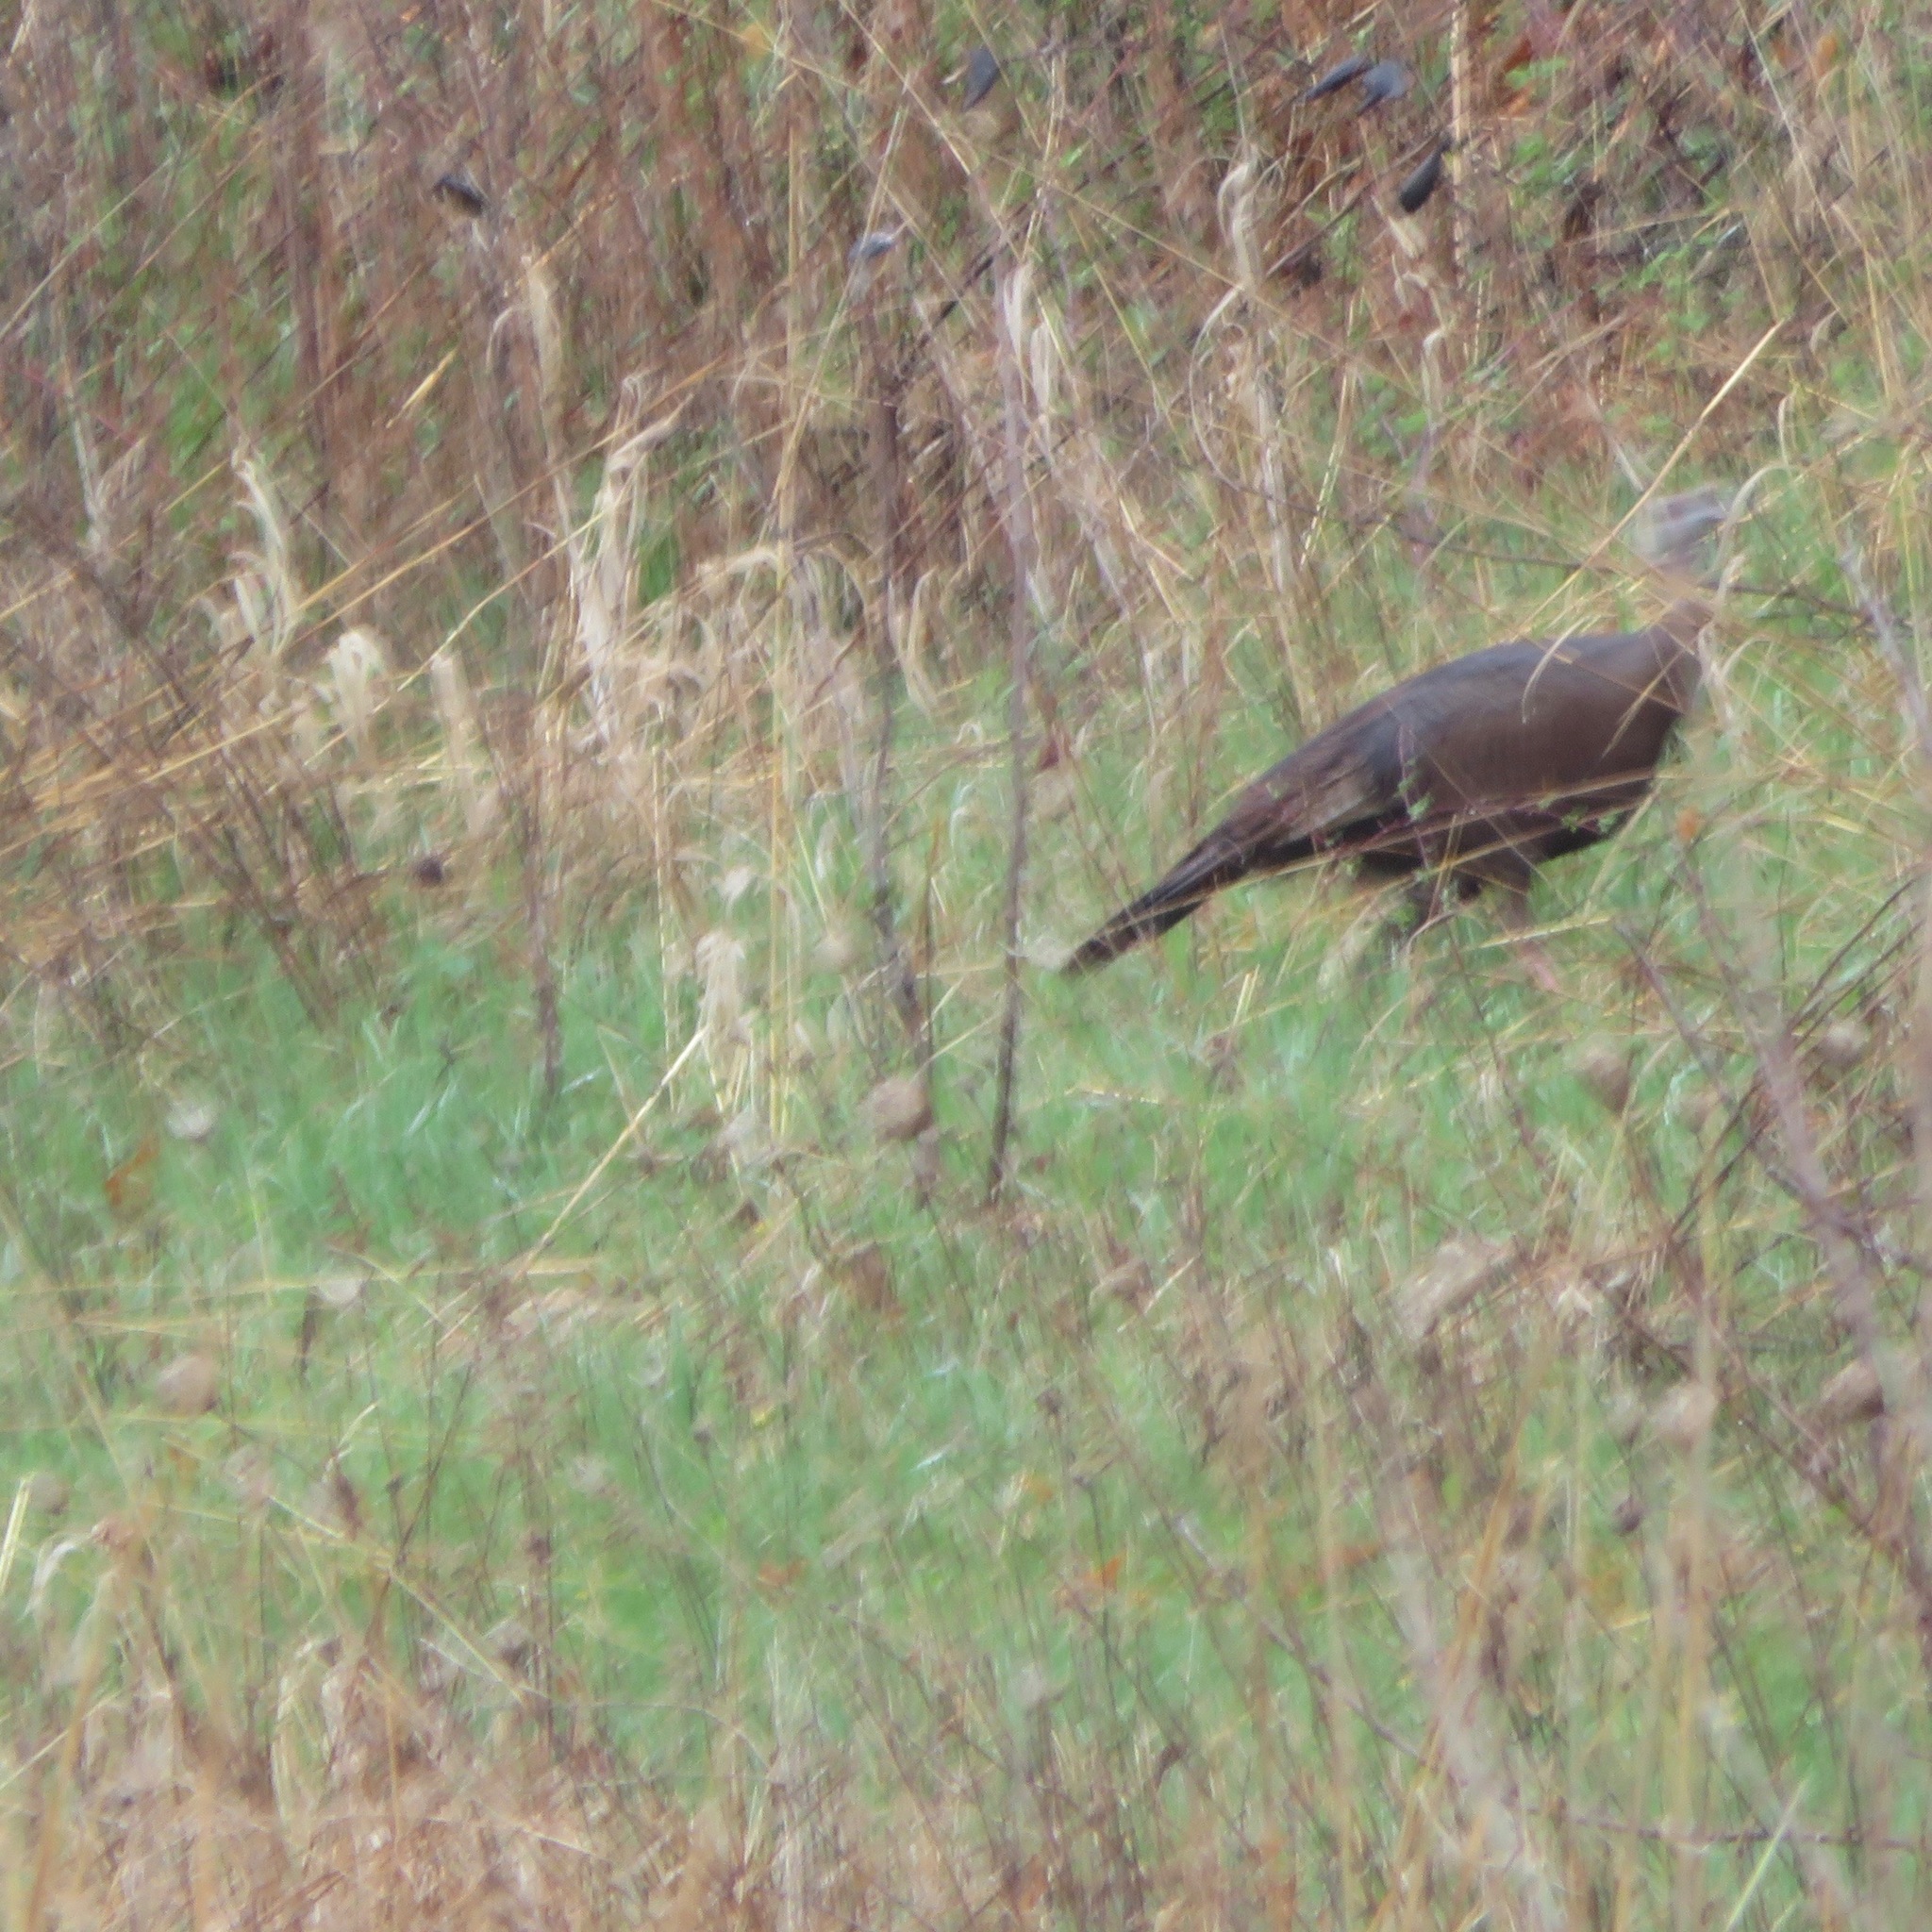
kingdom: Animalia
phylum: Chordata
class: Aves
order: Galliformes
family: Phasianidae
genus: Meleagris
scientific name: Meleagris gallopavo
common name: Wild turkey
